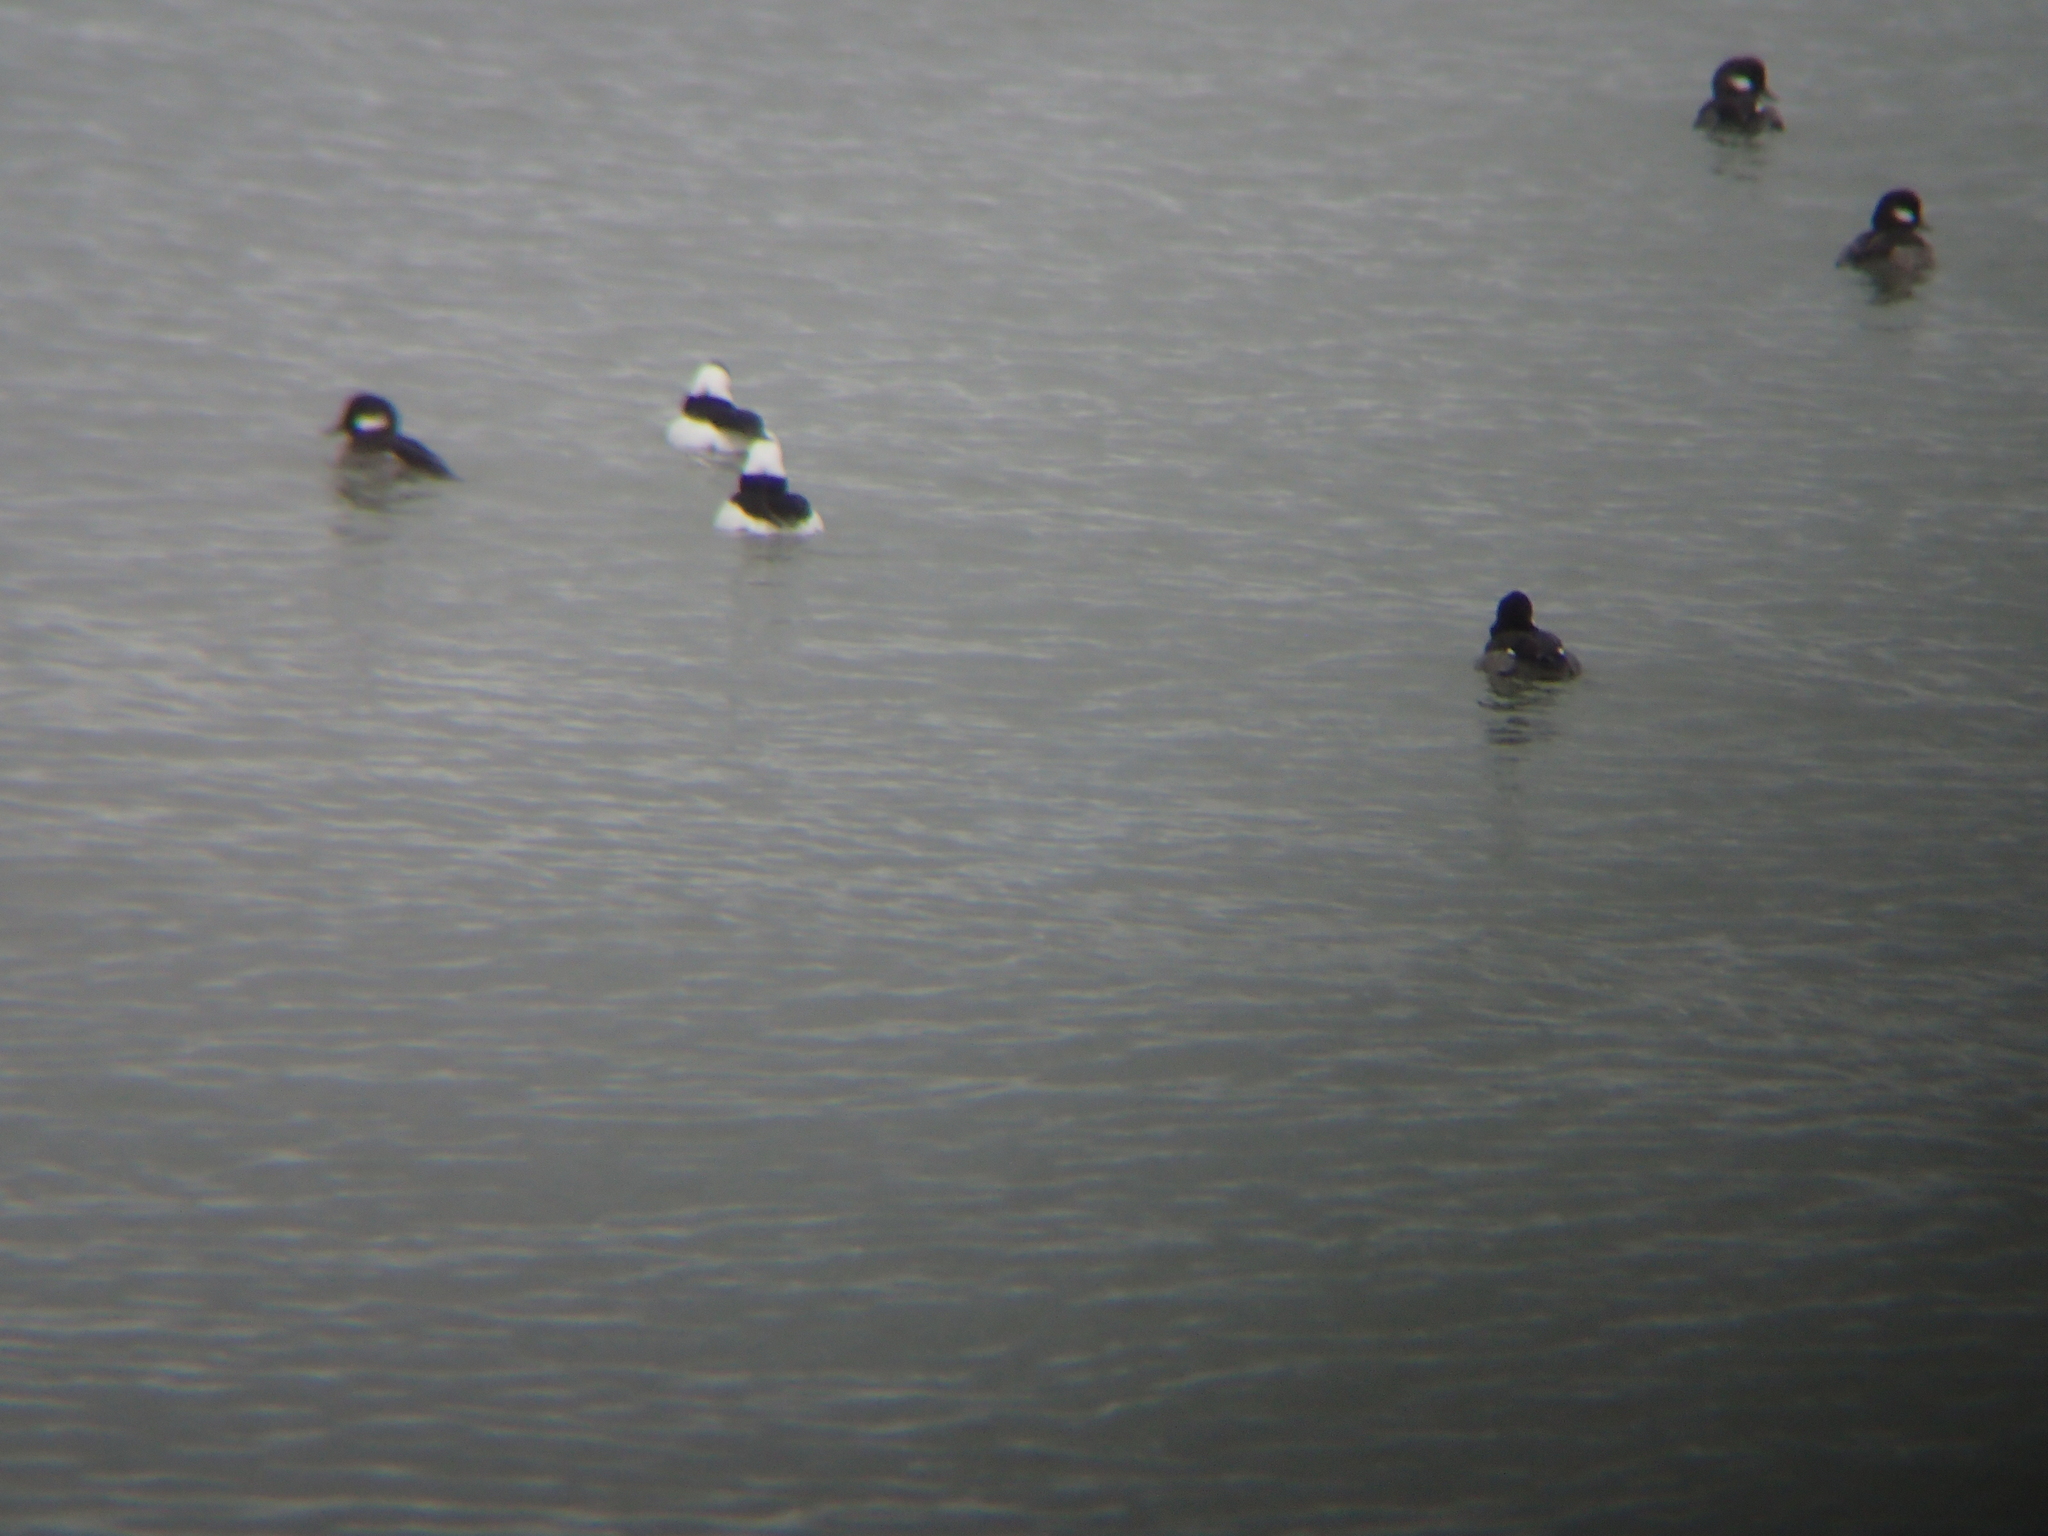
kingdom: Animalia
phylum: Chordata
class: Aves
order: Anseriformes
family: Anatidae
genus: Bucephala
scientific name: Bucephala albeola
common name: Bufflehead
